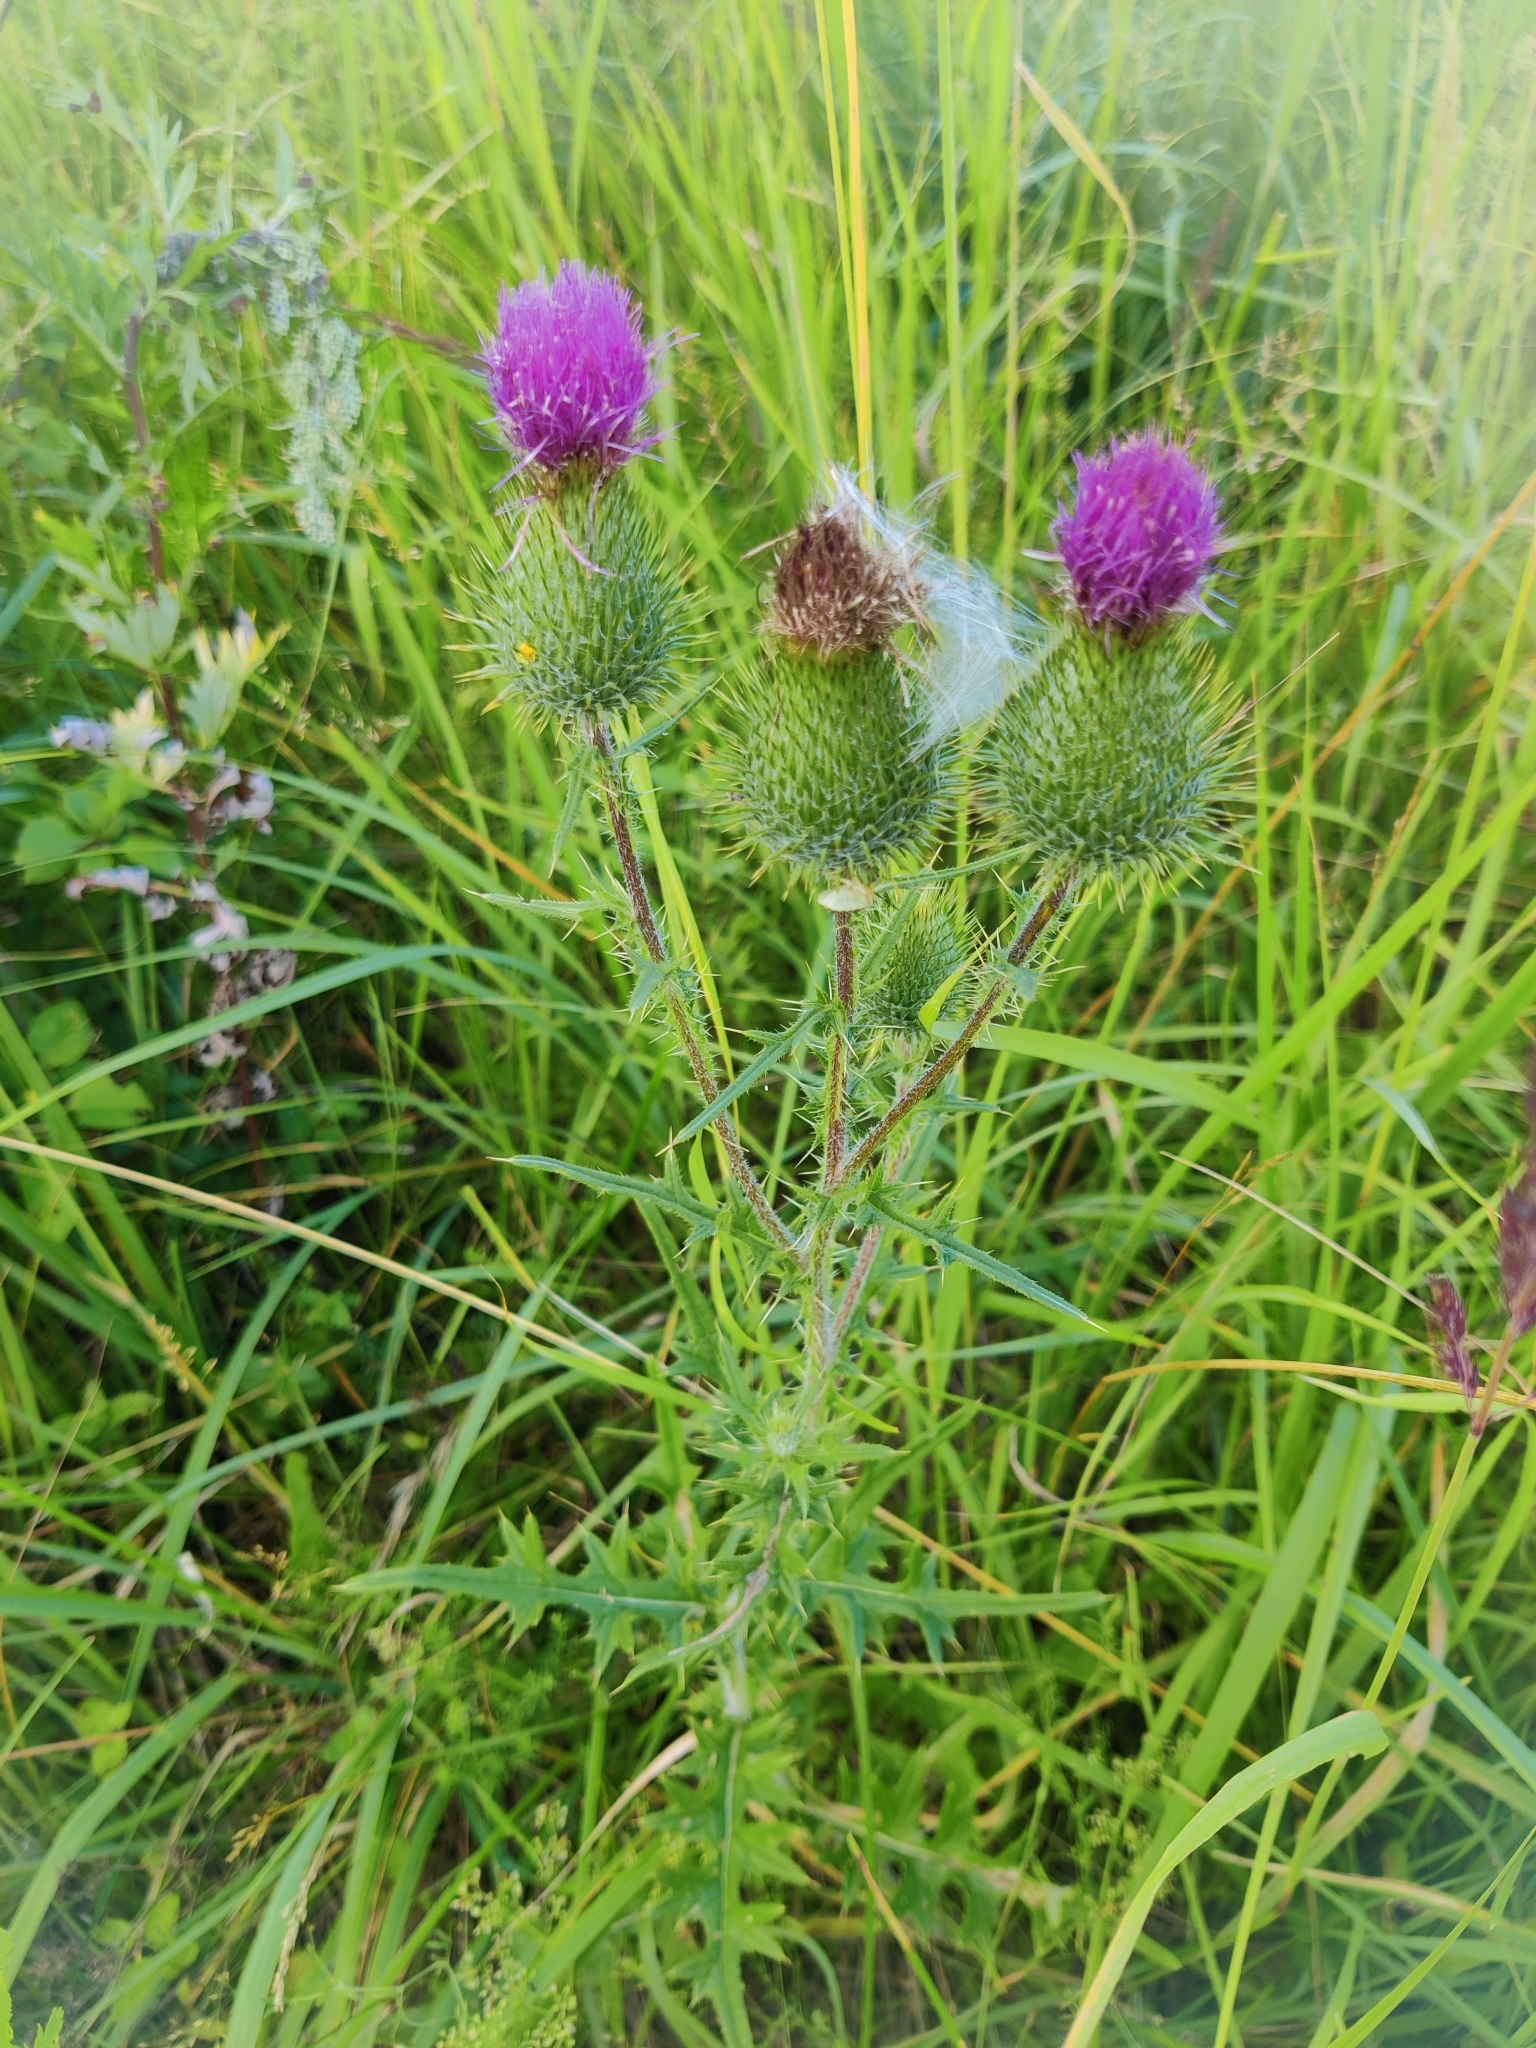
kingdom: Plantae
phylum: Tracheophyta
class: Magnoliopsida
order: Asterales
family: Asteraceae
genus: Cirsium
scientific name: Cirsium vulgare
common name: Bull thistle
